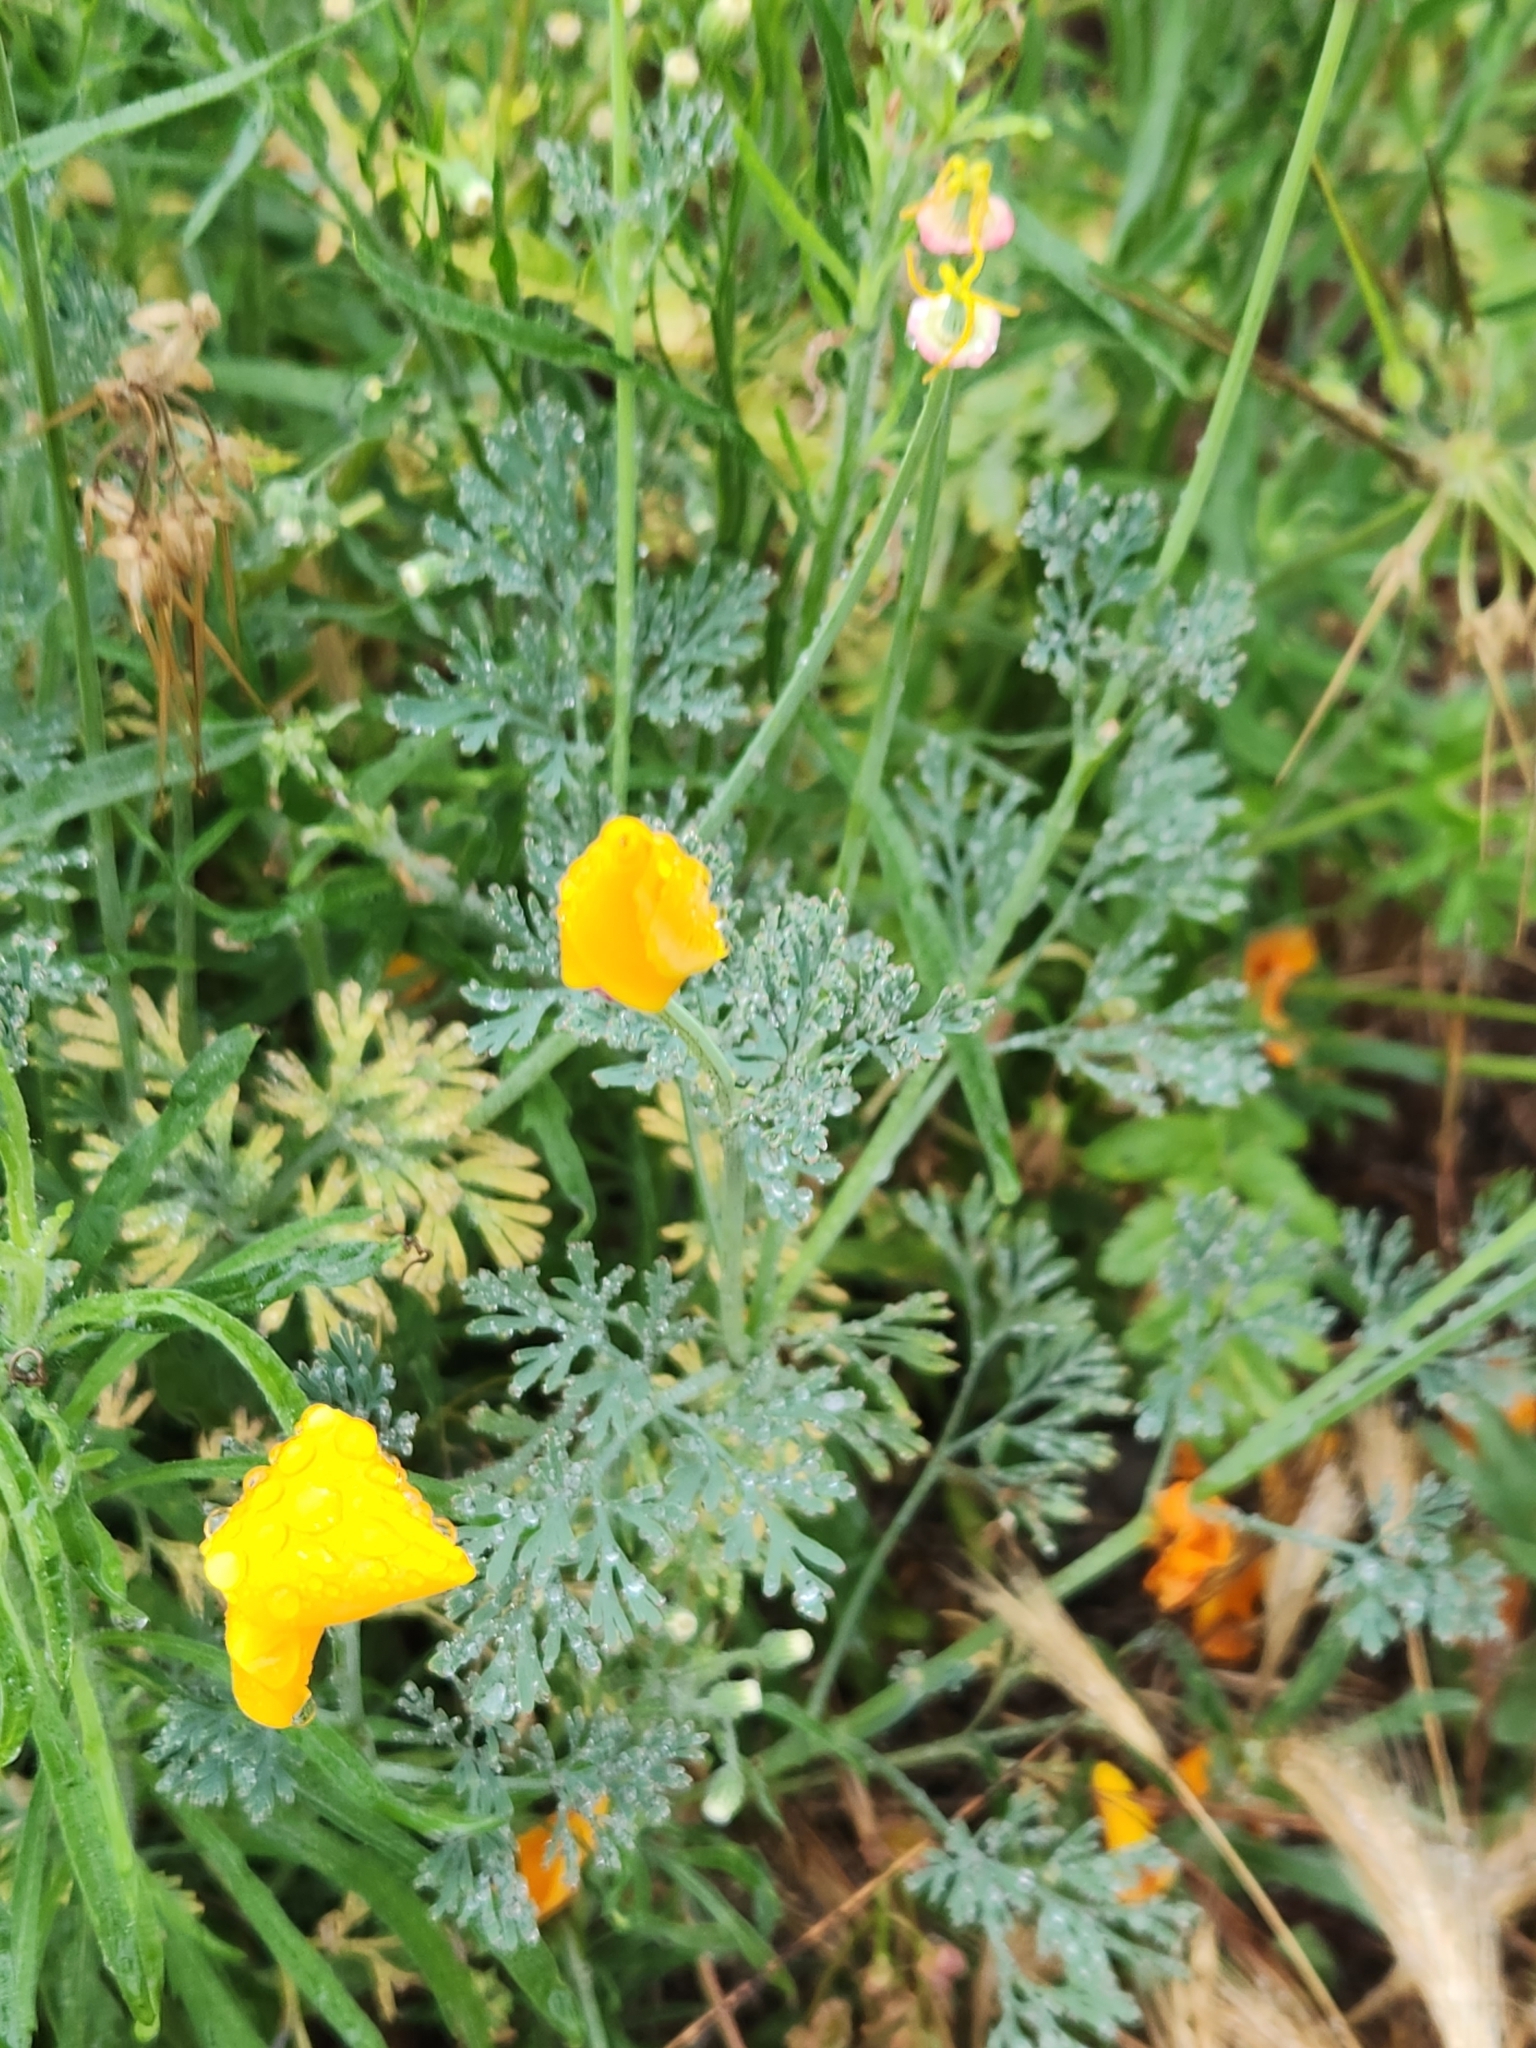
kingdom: Plantae
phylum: Tracheophyta
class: Magnoliopsida
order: Ranunculales
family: Papaveraceae
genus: Eschscholzia
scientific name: Eschscholzia californica
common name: California poppy
